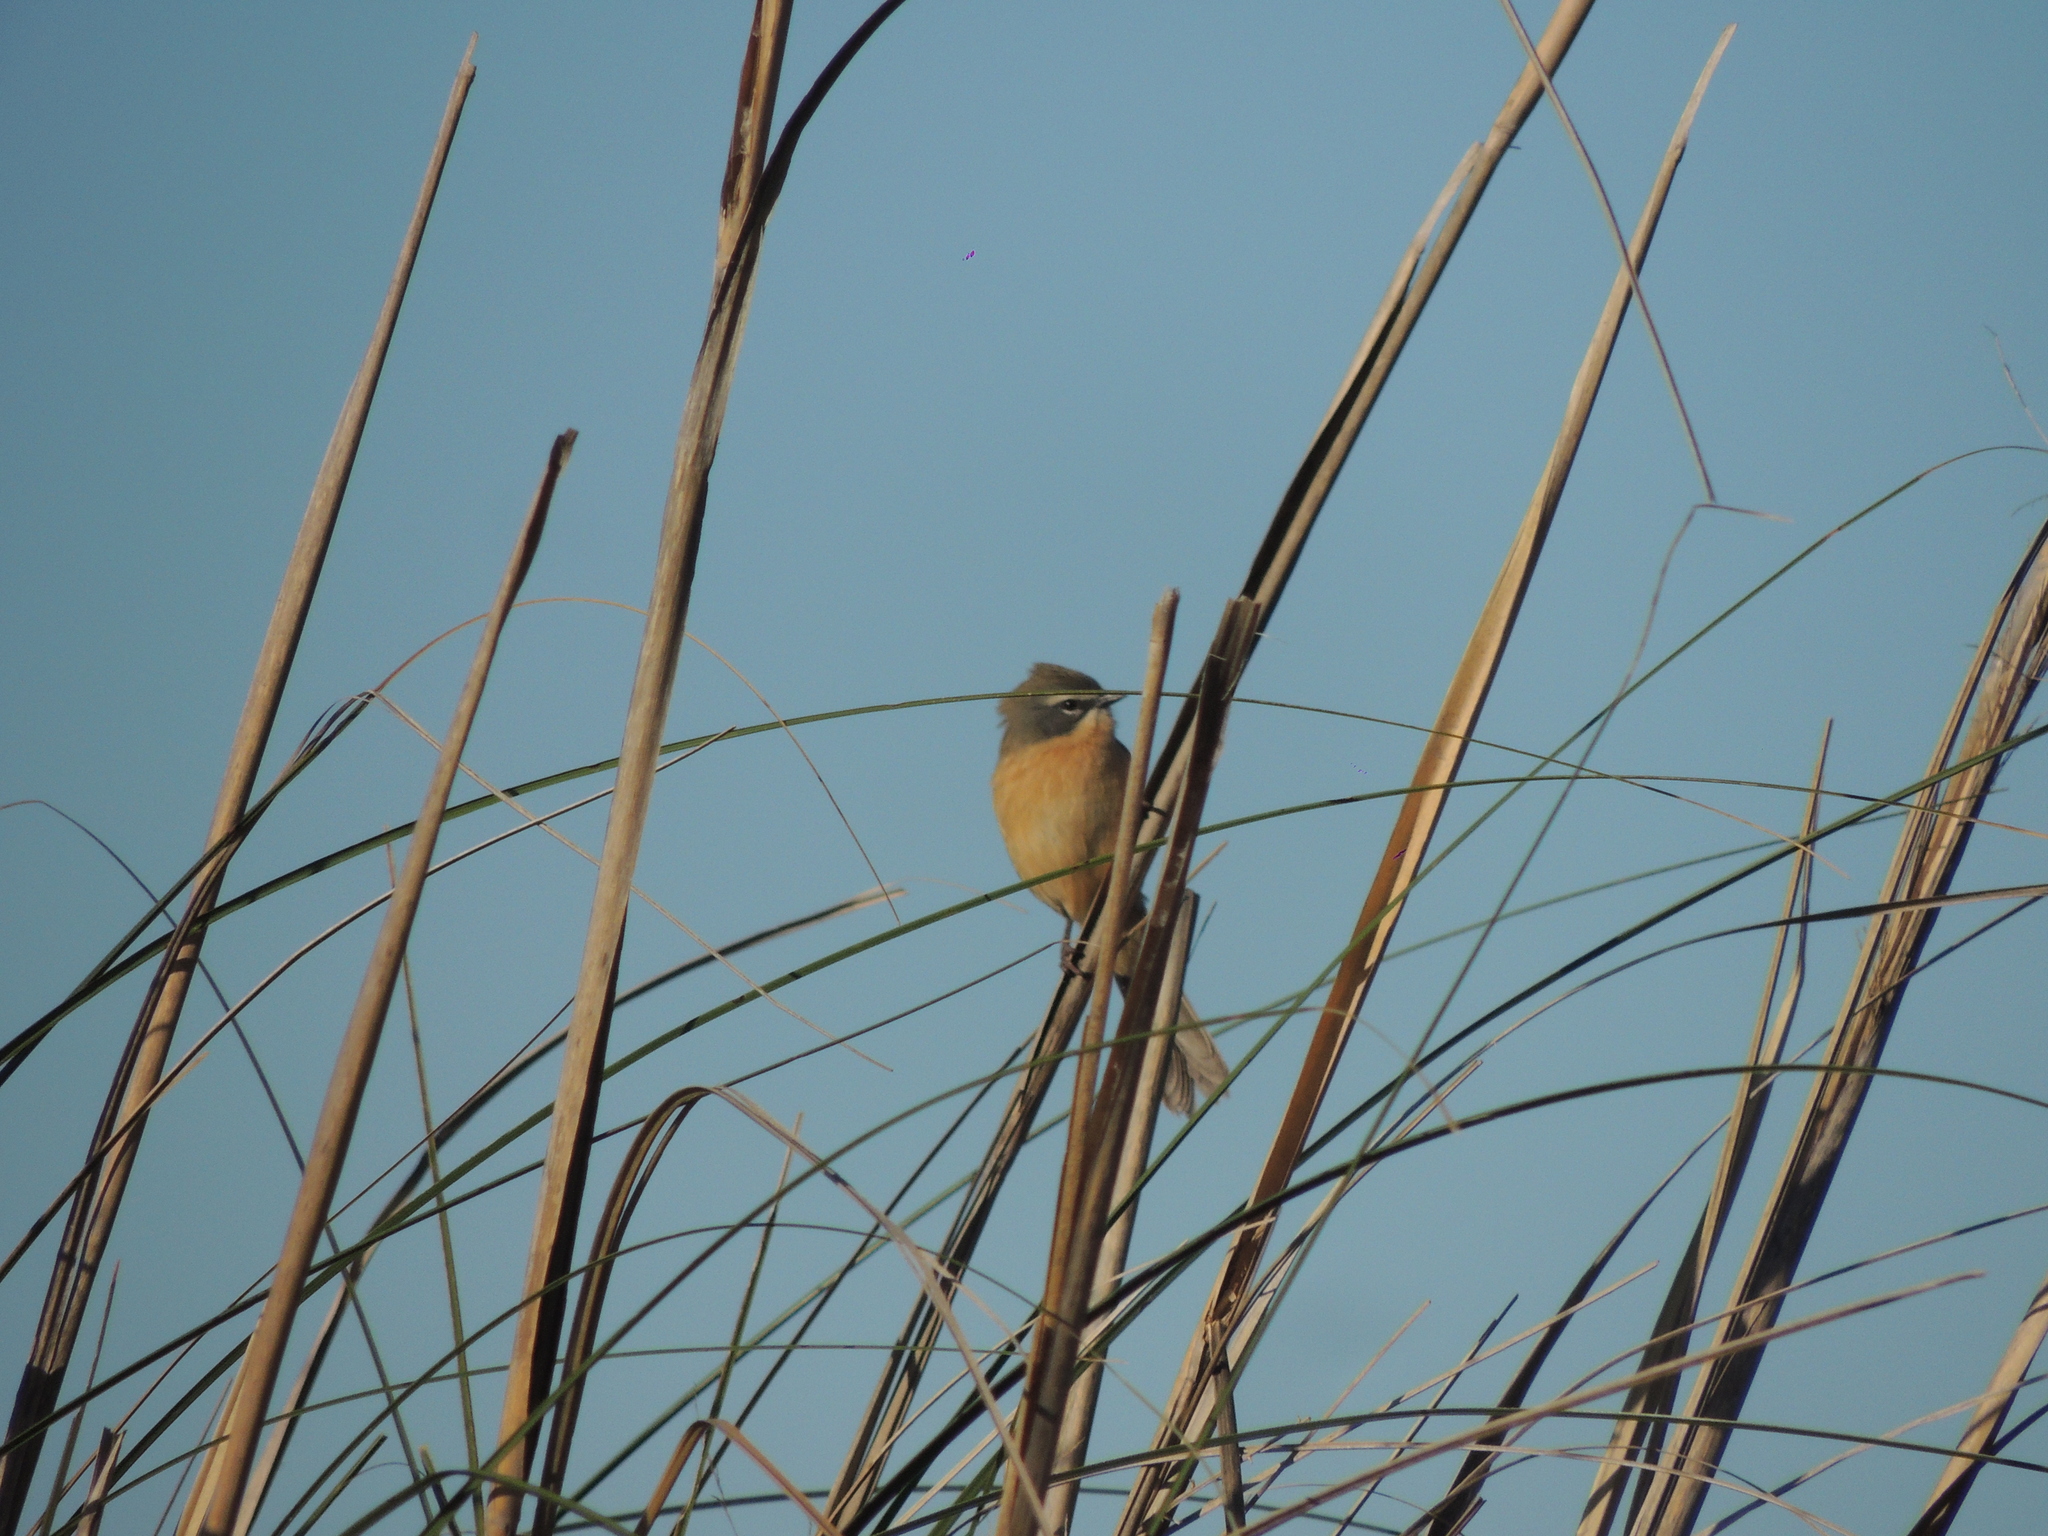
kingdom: Animalia
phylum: Chordata
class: Aves
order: Passeriformes
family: Thraupidae
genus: Donacospiza
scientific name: Donacospiza albifrons
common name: Long-tailed reed finch
